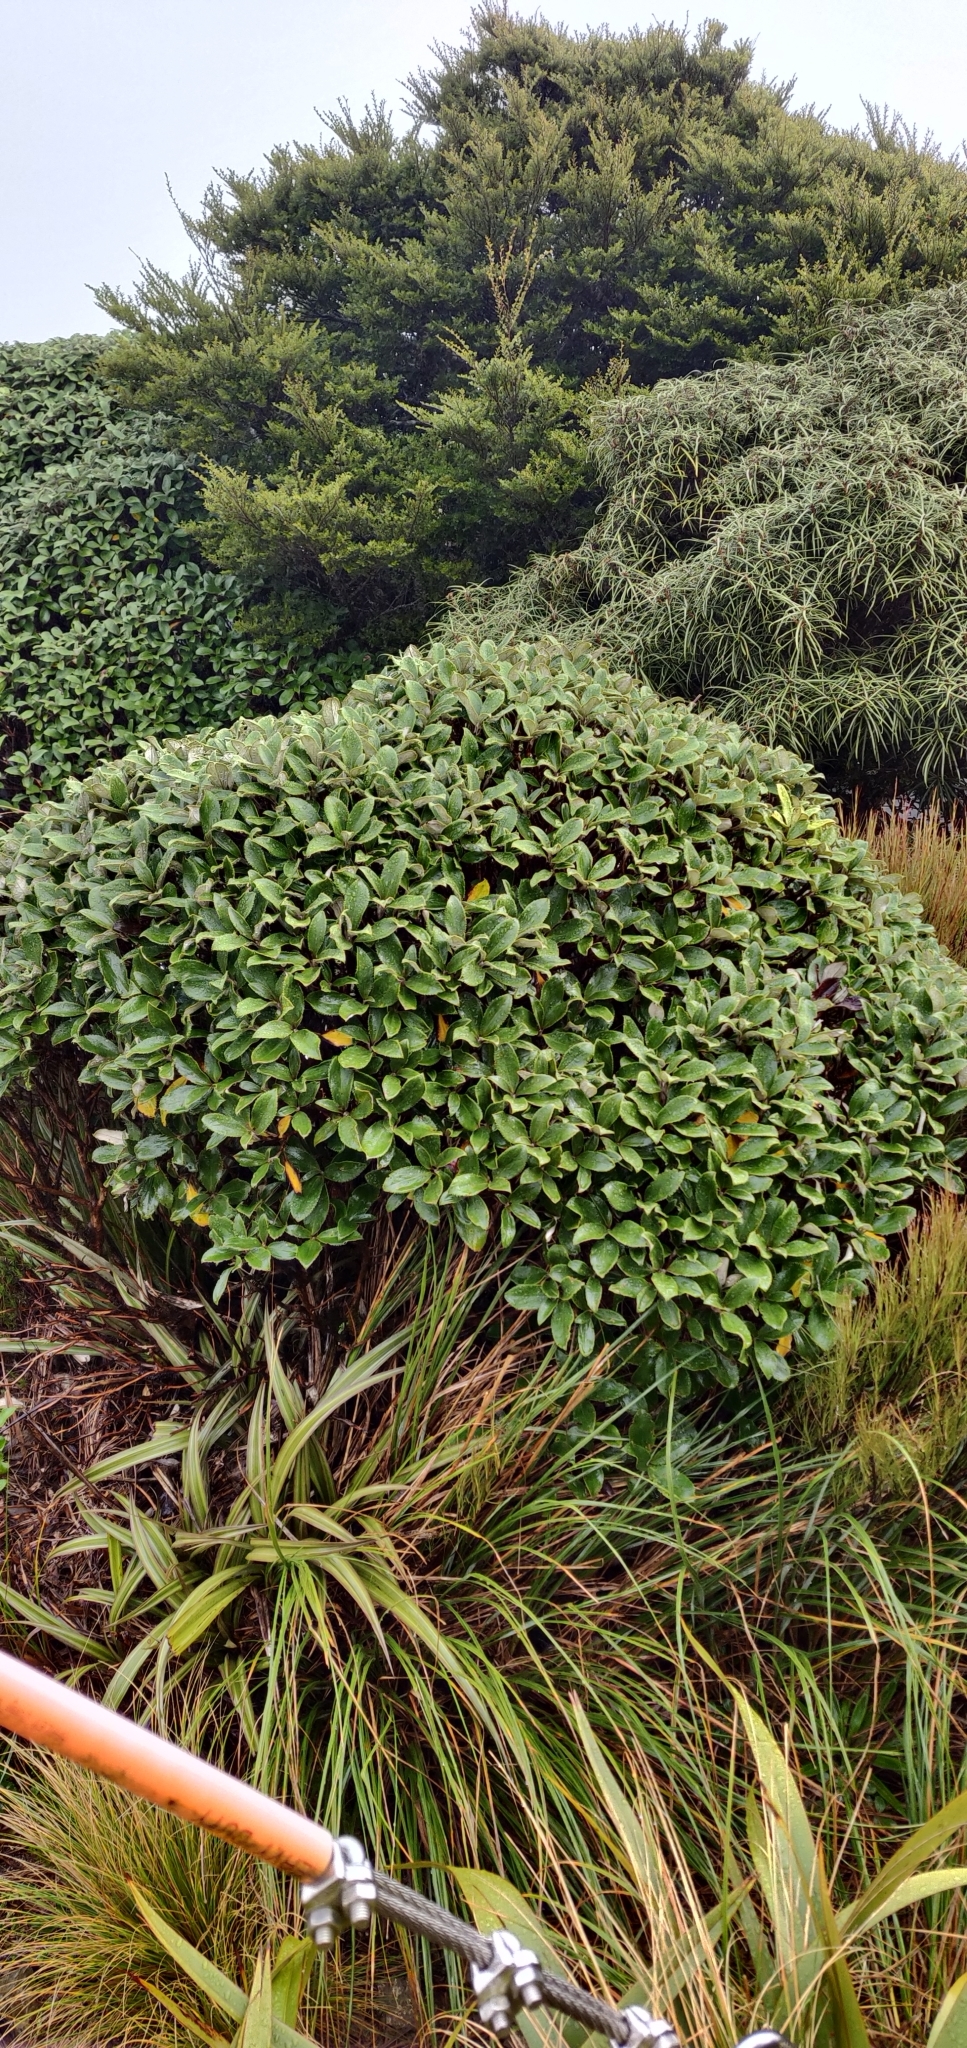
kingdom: Plantae
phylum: Tracheophyta
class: Magnoliopsida
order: Asterales
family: Asteraceae
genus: Macrolearia
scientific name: Macrolearia colensoi
